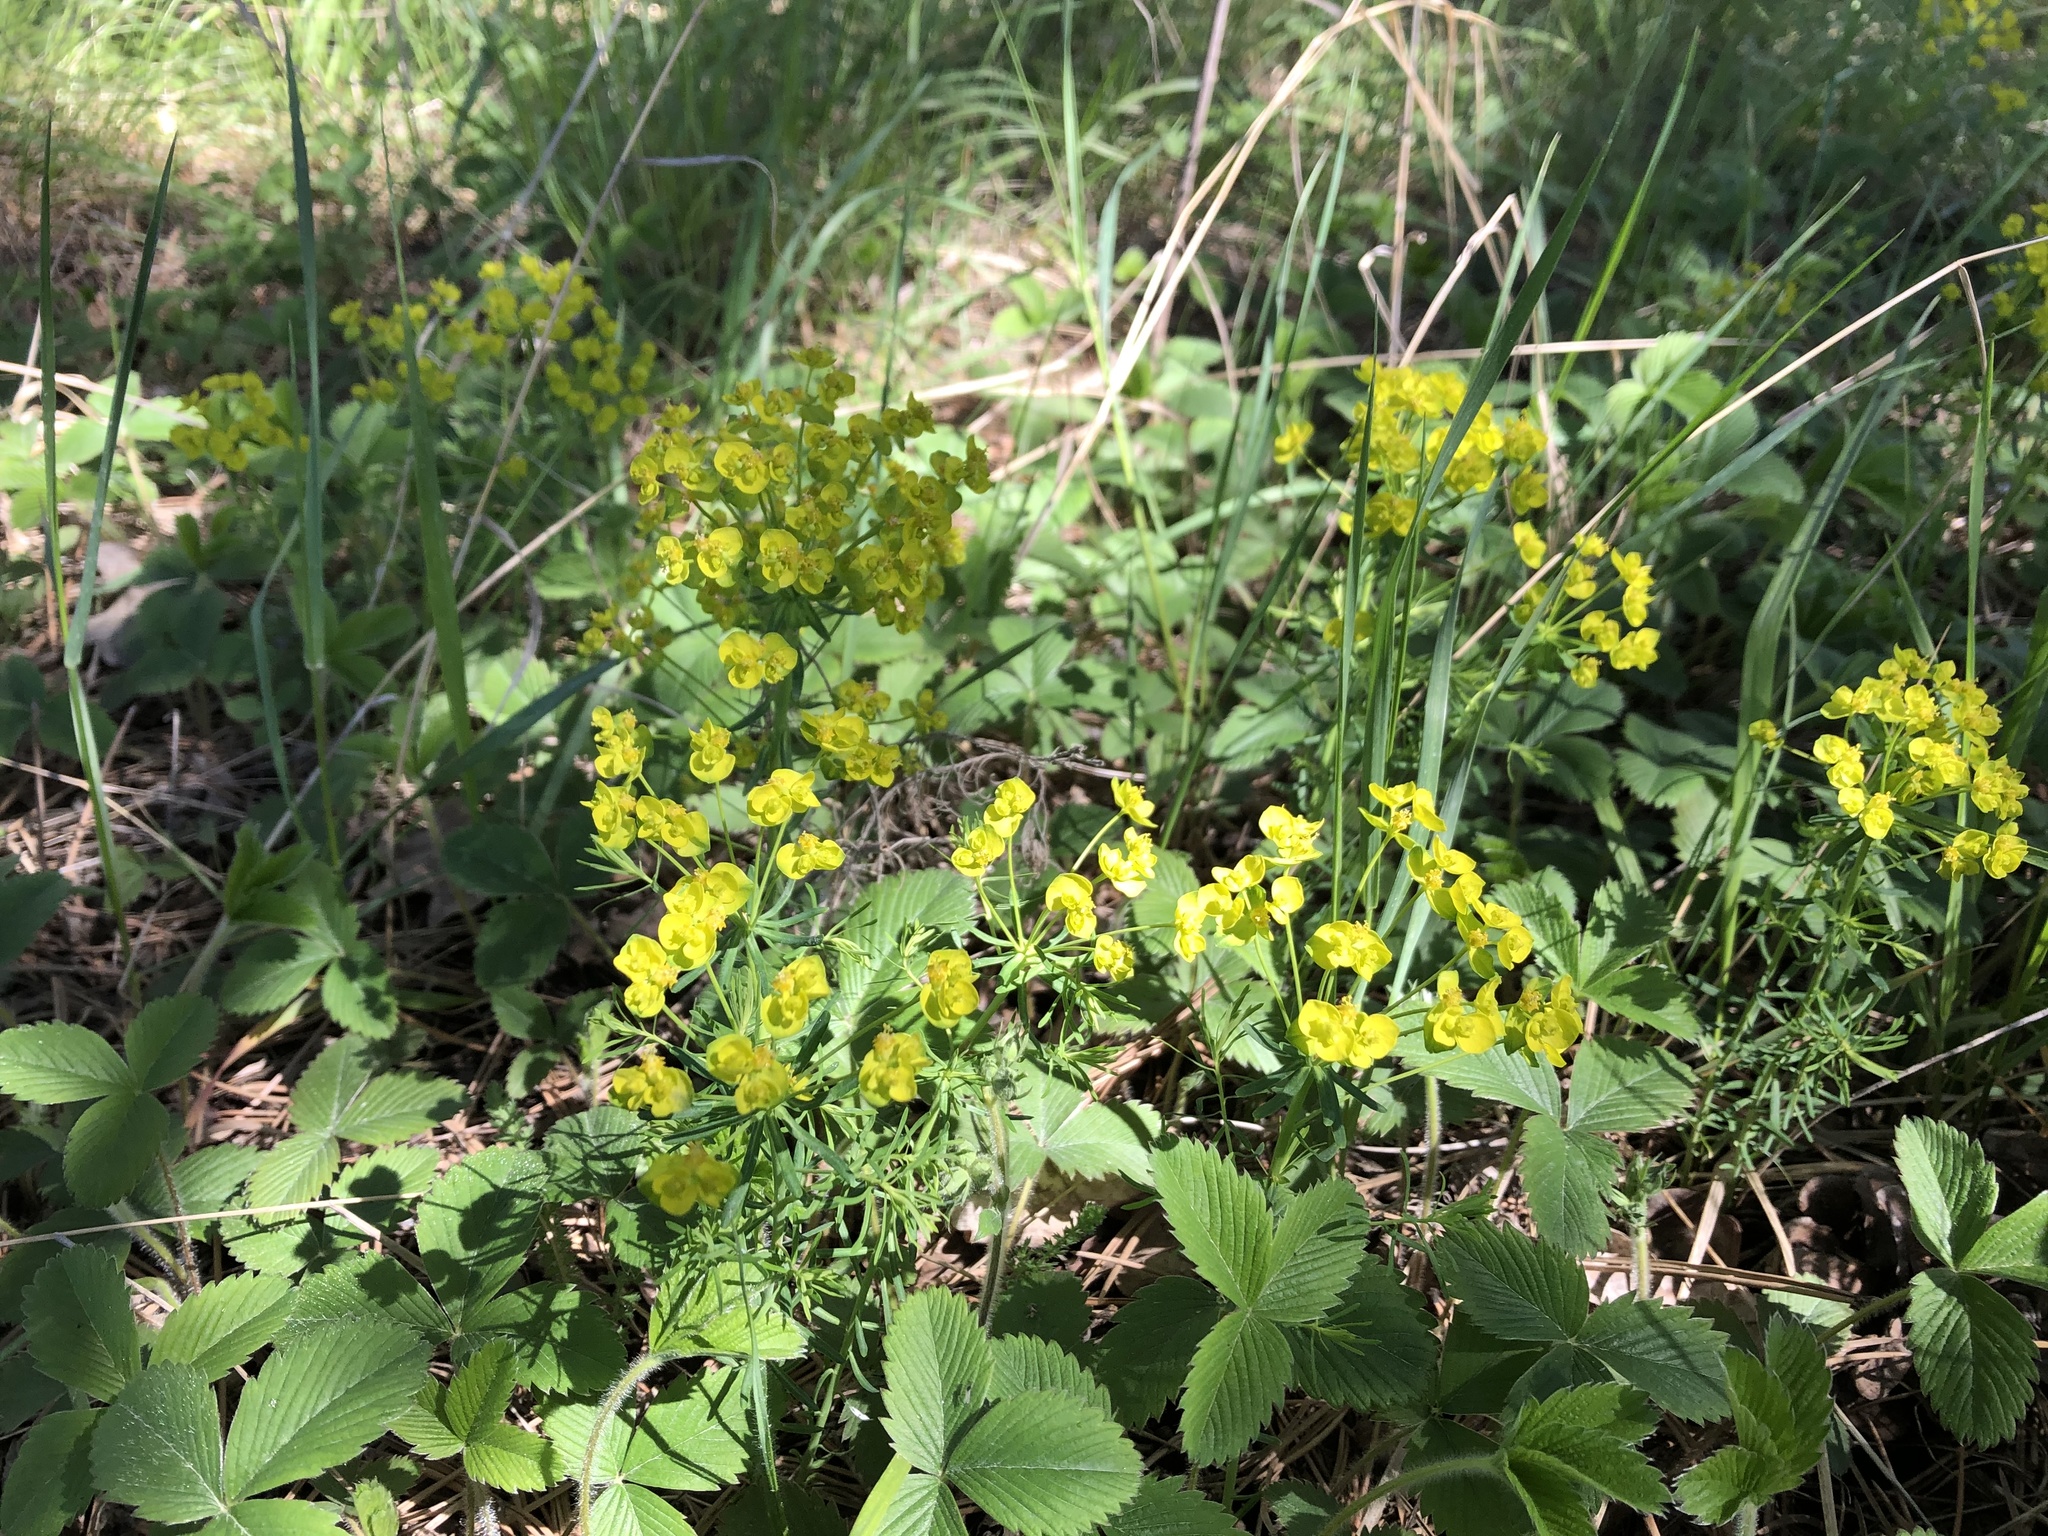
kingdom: Plantae
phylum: Tracheophyta
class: Magnoliopsida
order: Malpighiales
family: Euphorbiaceae
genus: Euphorbia
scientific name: Euphorbia cyparissias
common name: Cypress spurge
